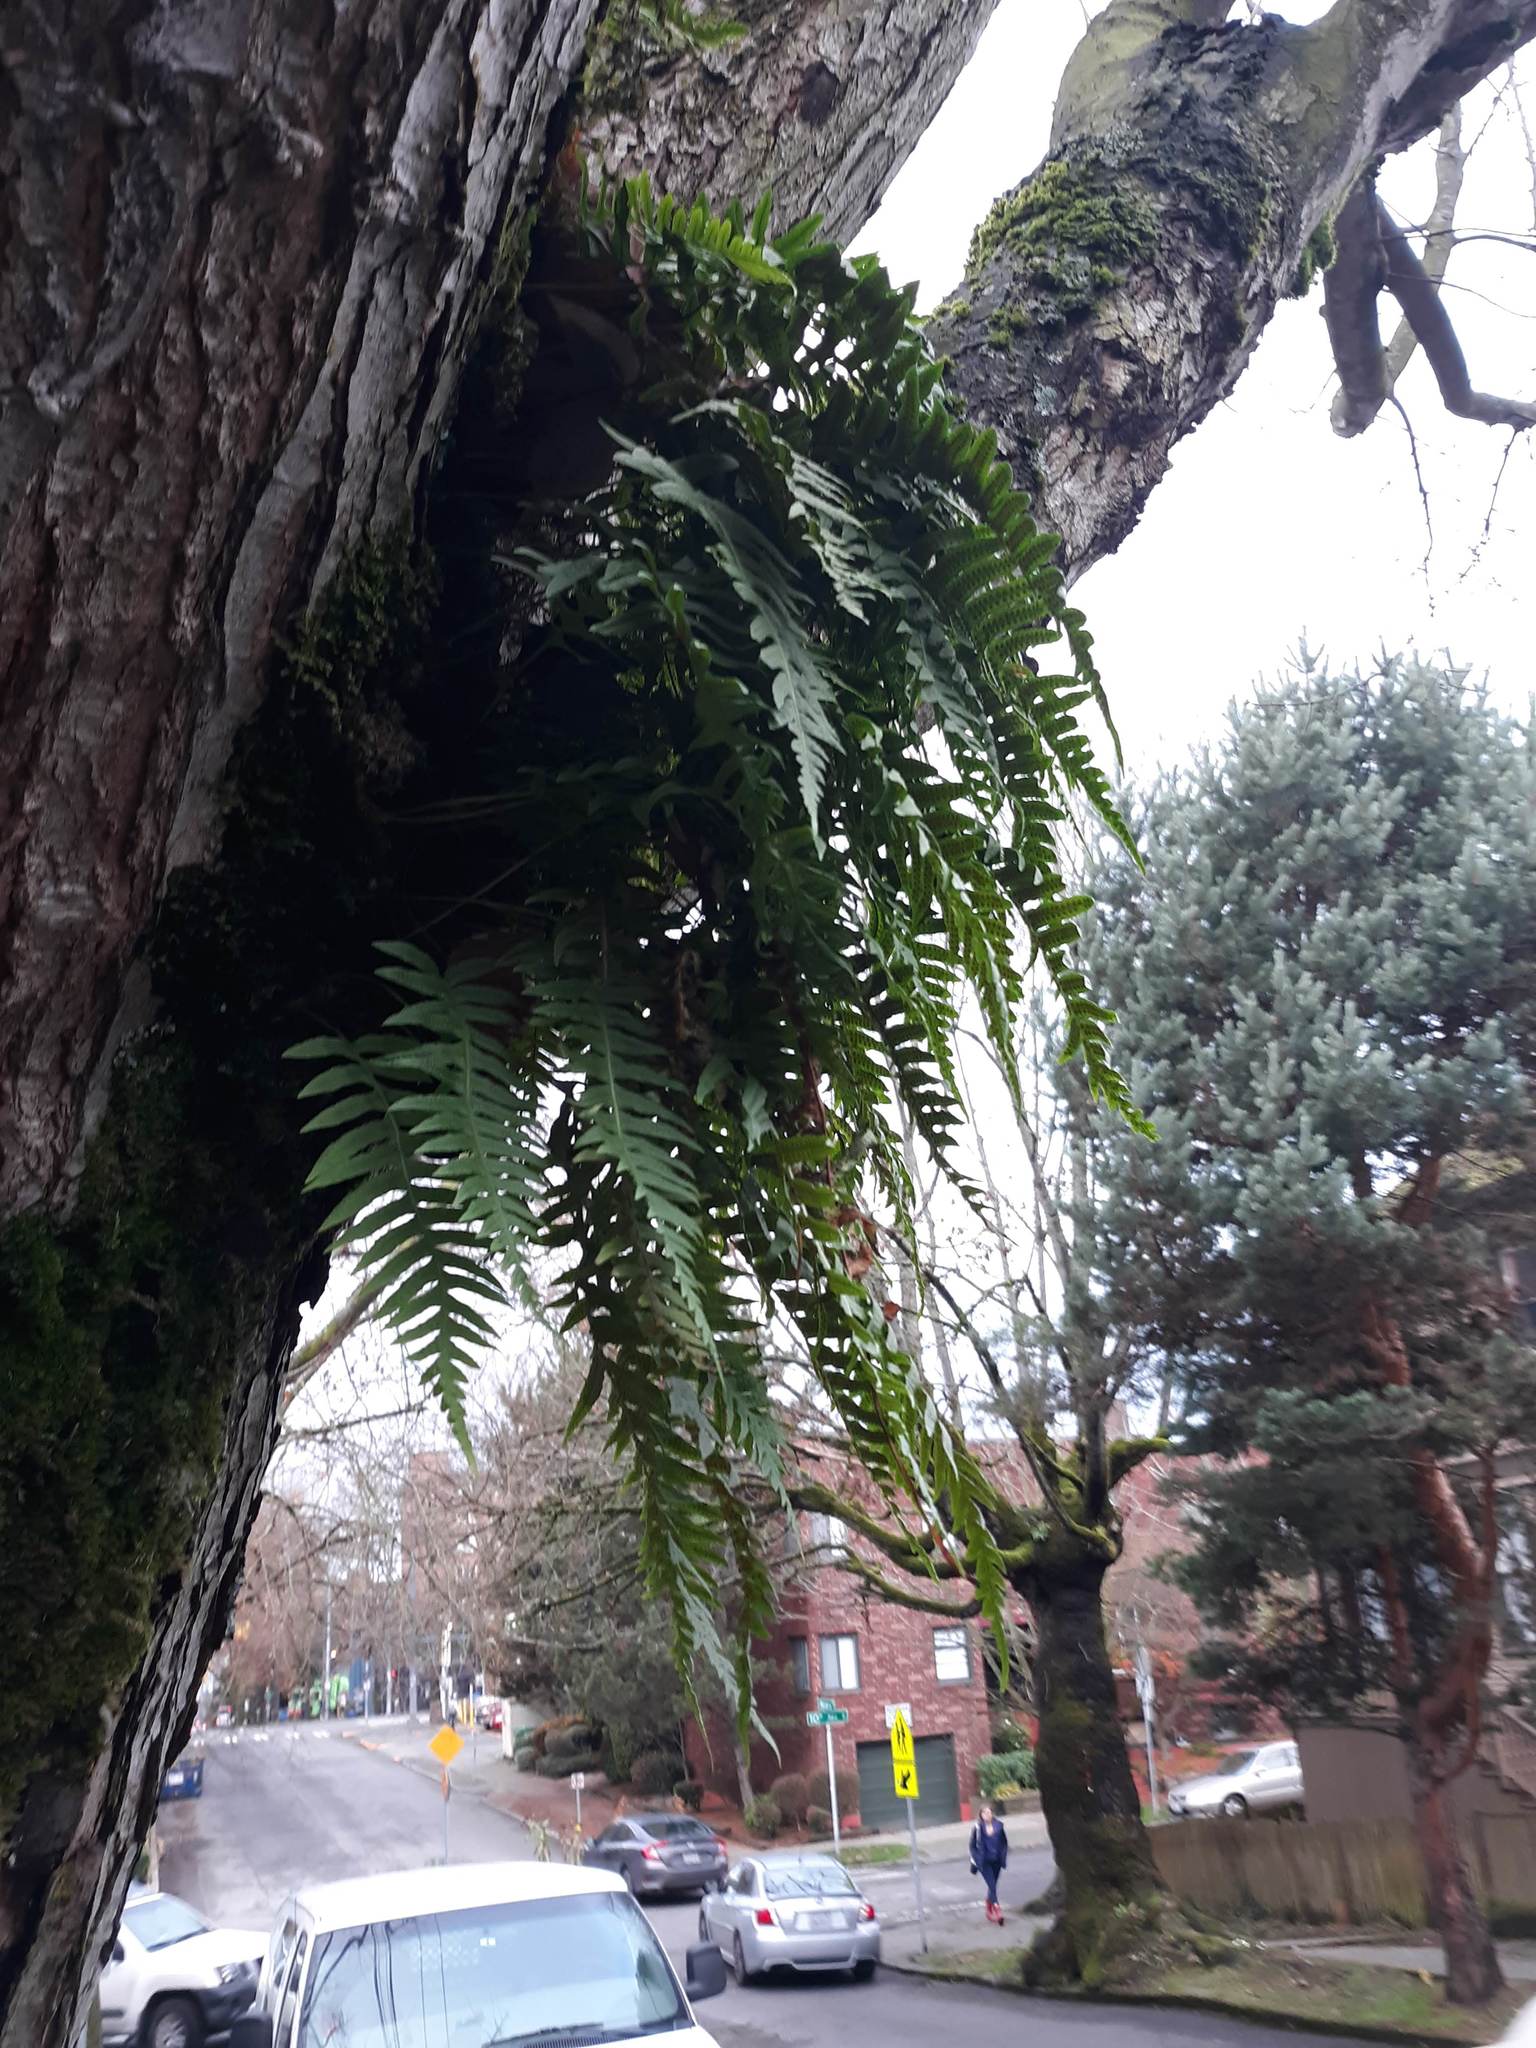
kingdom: Plantae
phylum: Tracheophyta
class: Polypodiopsida
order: Polypodiales
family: Polypodiaceae
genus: Polypodium
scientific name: Polypodium glycyrrhiza
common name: Licorice fern
